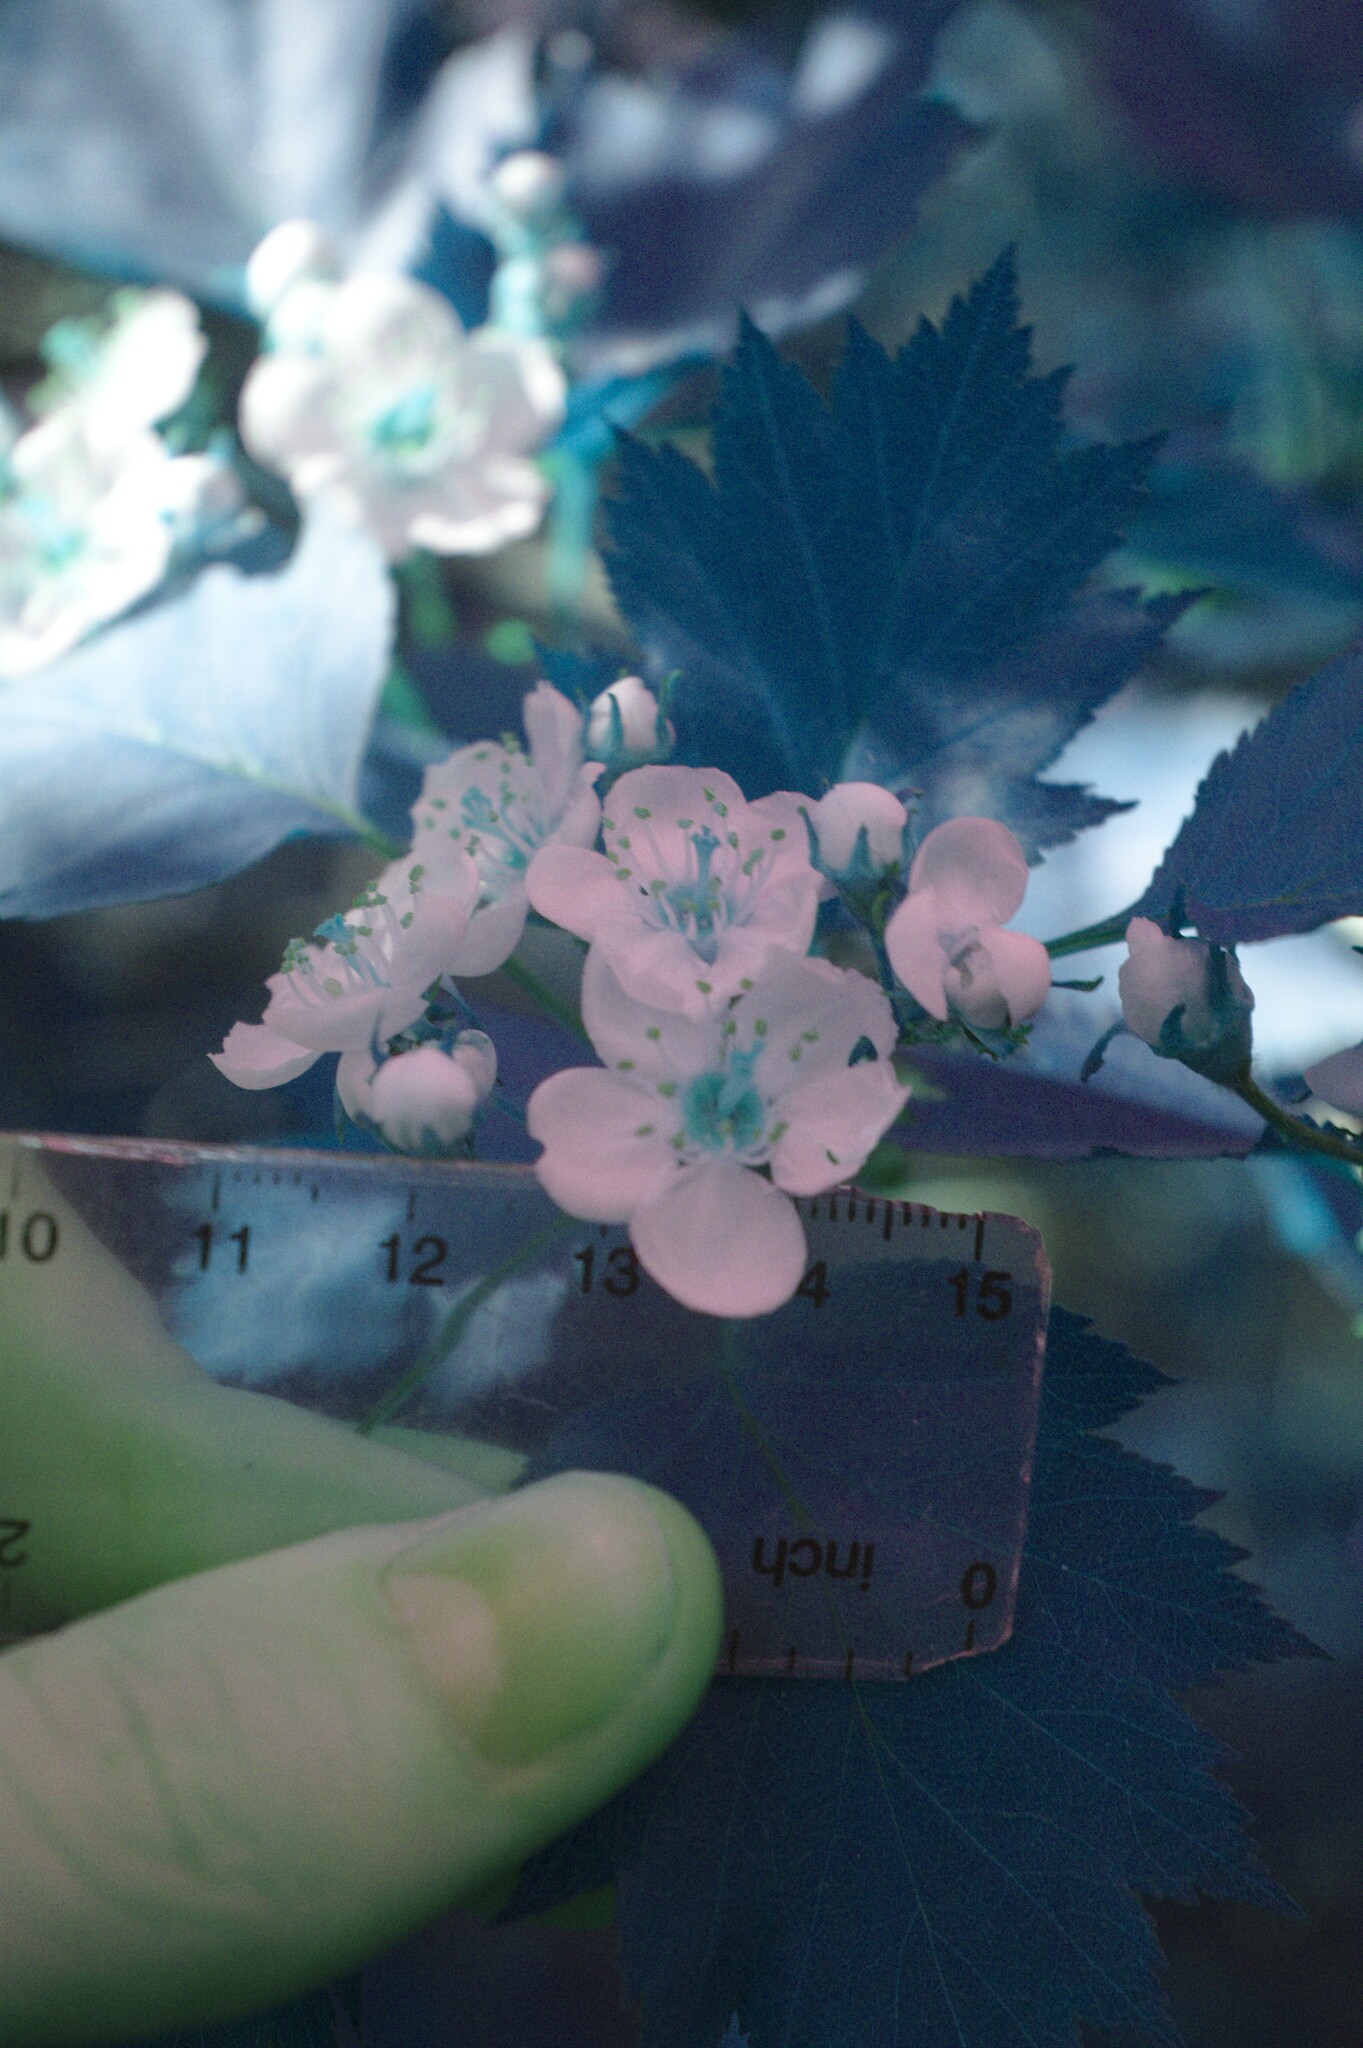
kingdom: Plantae
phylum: Tracheophyta
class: Magnoliopsida
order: Rosales
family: Rosaceae
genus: Crataegus
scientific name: Crataegus flabellata
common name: Bosc's hawthorn
